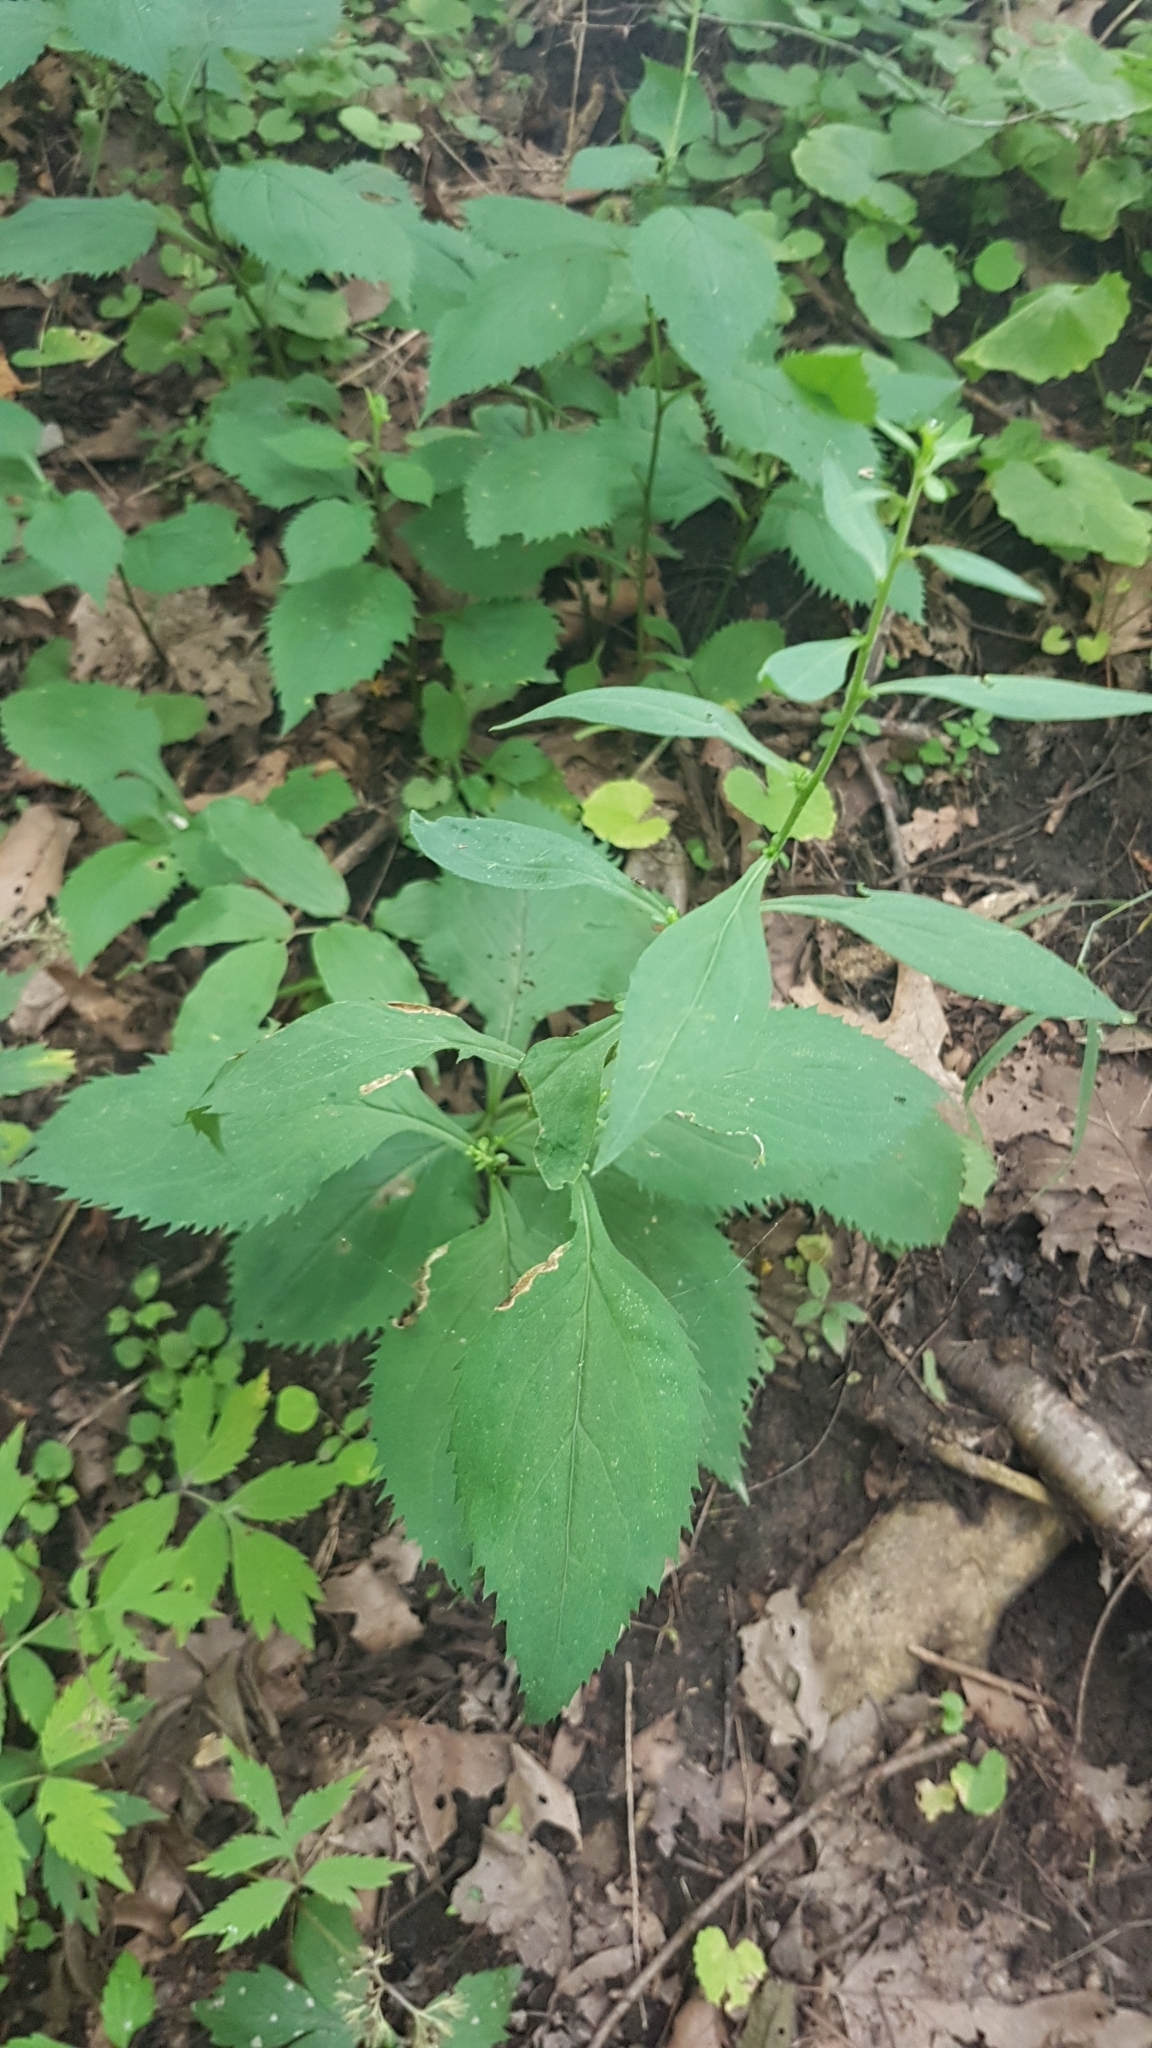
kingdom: Plantae
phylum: Tracheophyta
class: Magnoliopsida
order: Asterales
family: Asteraceae
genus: Solidago
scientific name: Solidago flexicaulis
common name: Zig-zag goldenrod
